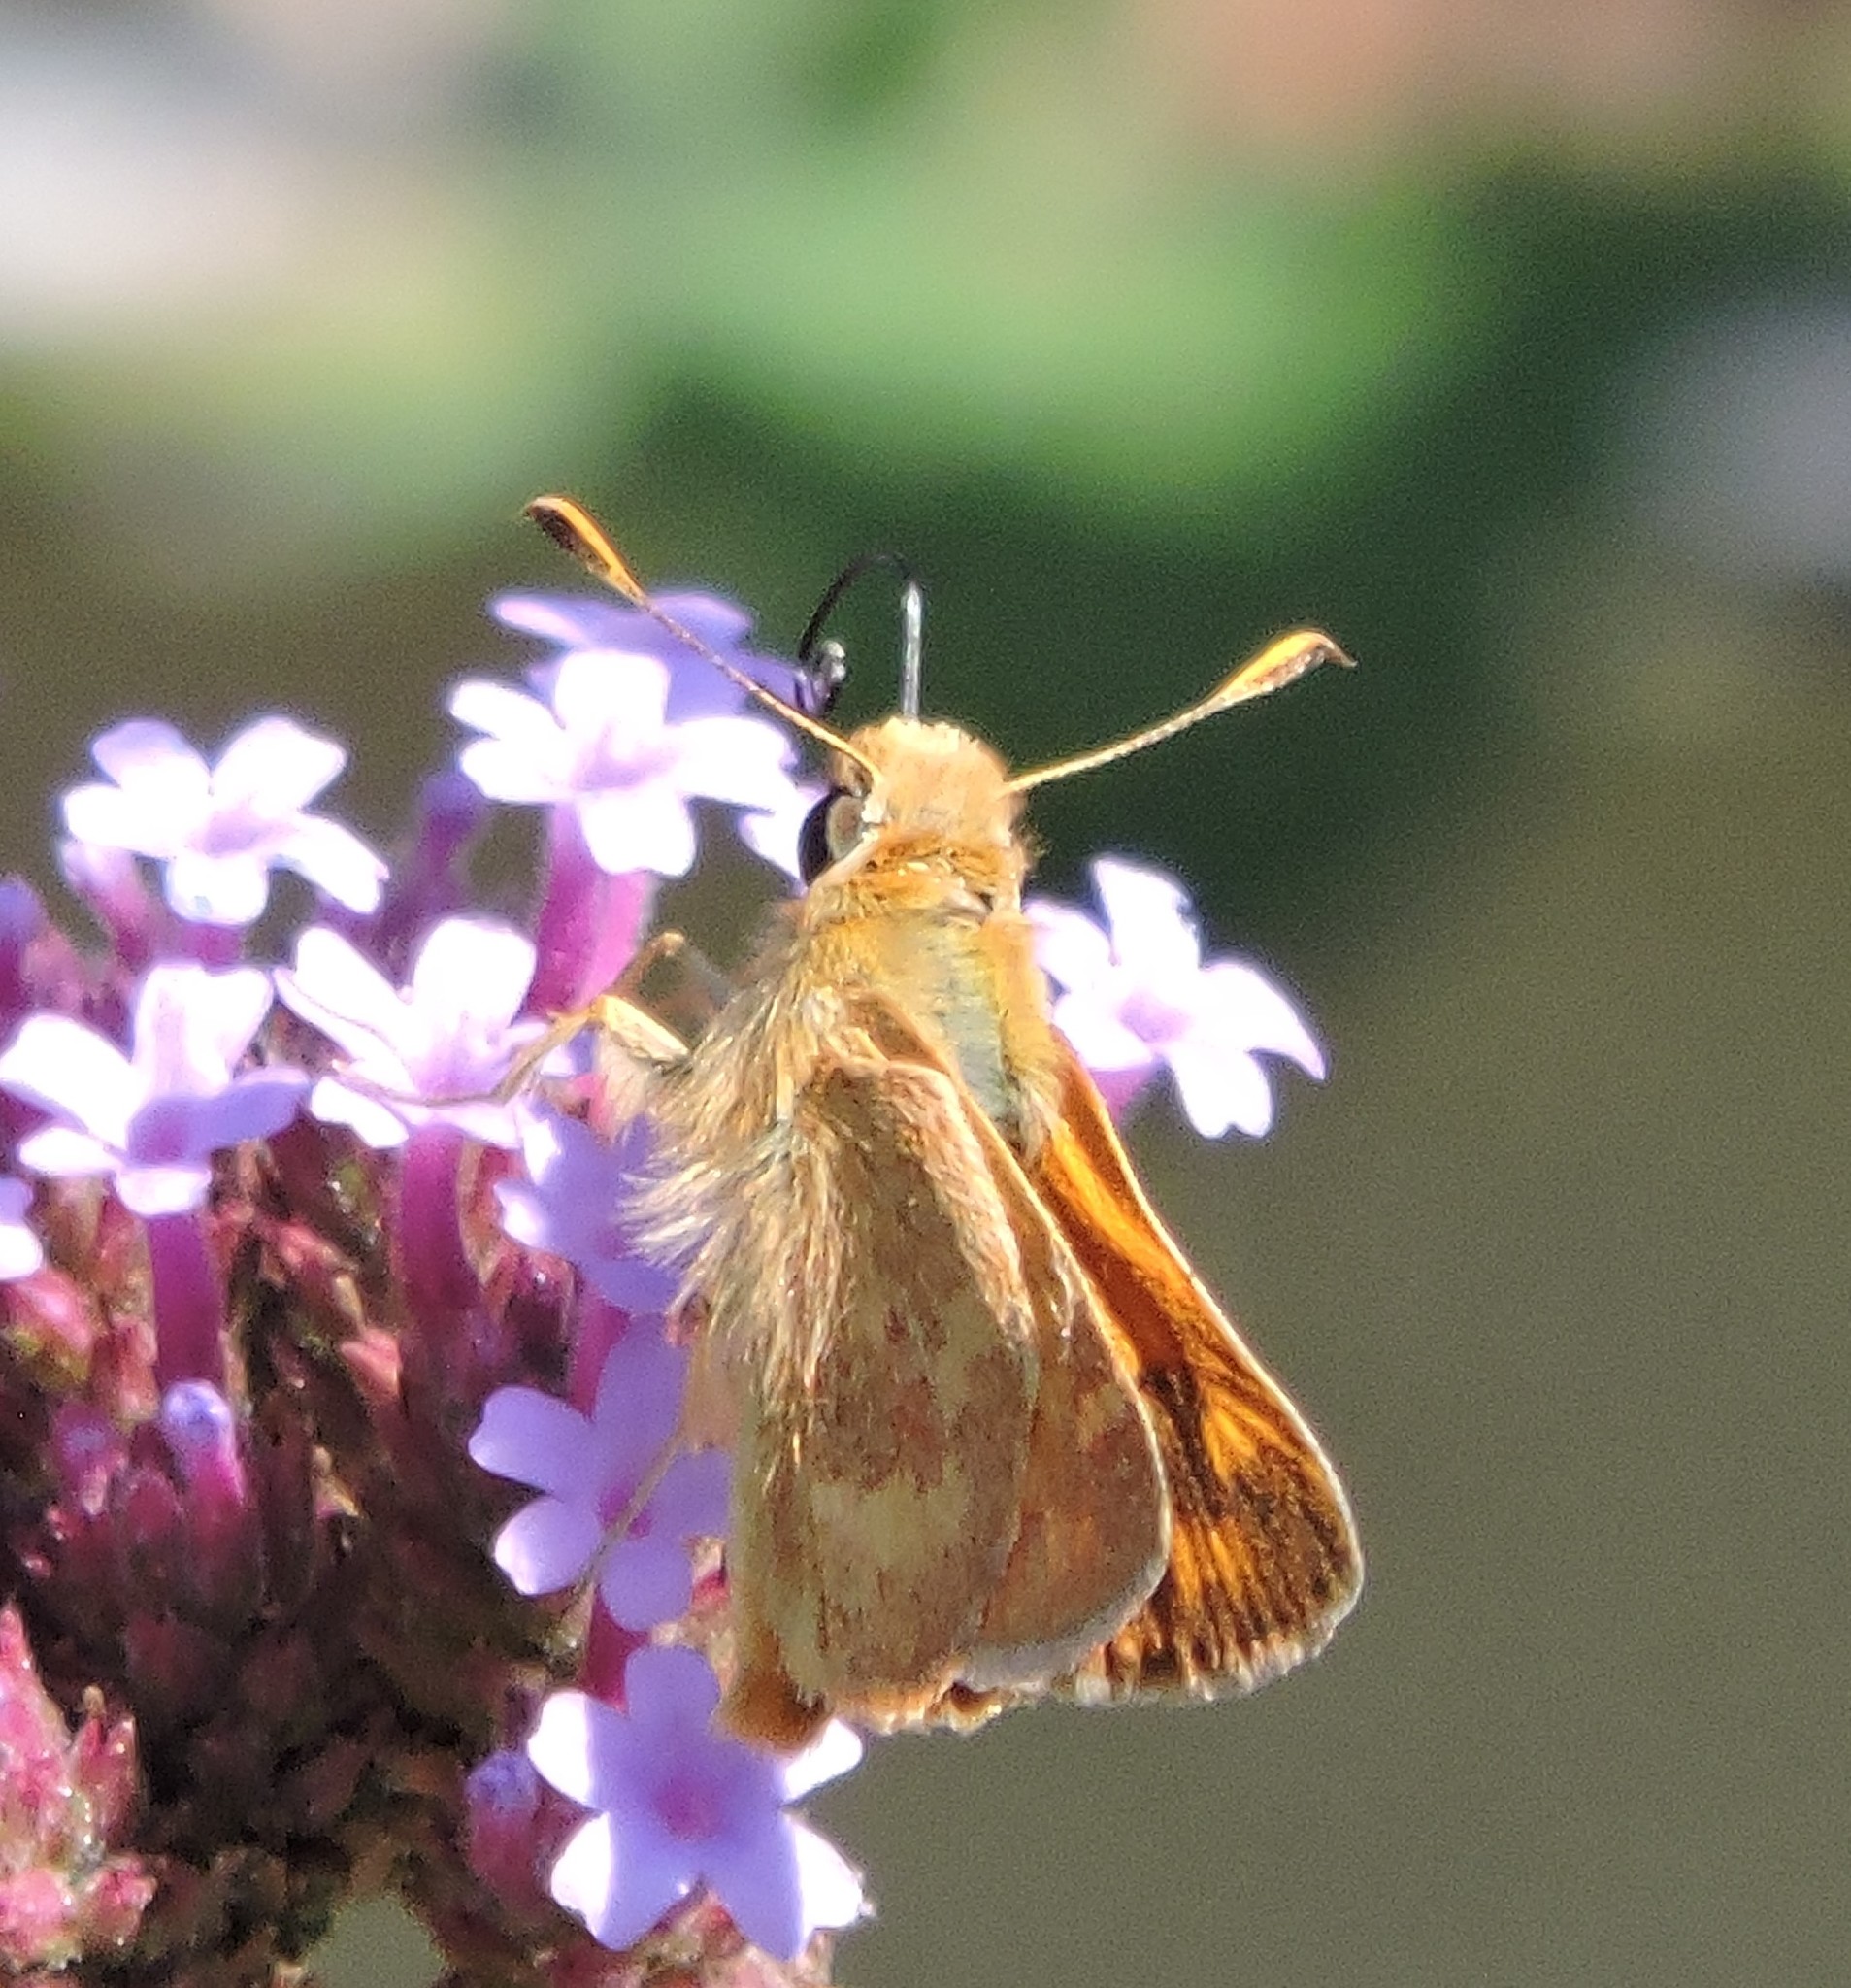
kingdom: Animalia
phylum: Arthropoda
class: Insecta
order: Lepidoptera
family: Hesperiidae
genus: Ochlodes
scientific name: Ochlodes sylvanoides
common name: Woodland skipper
